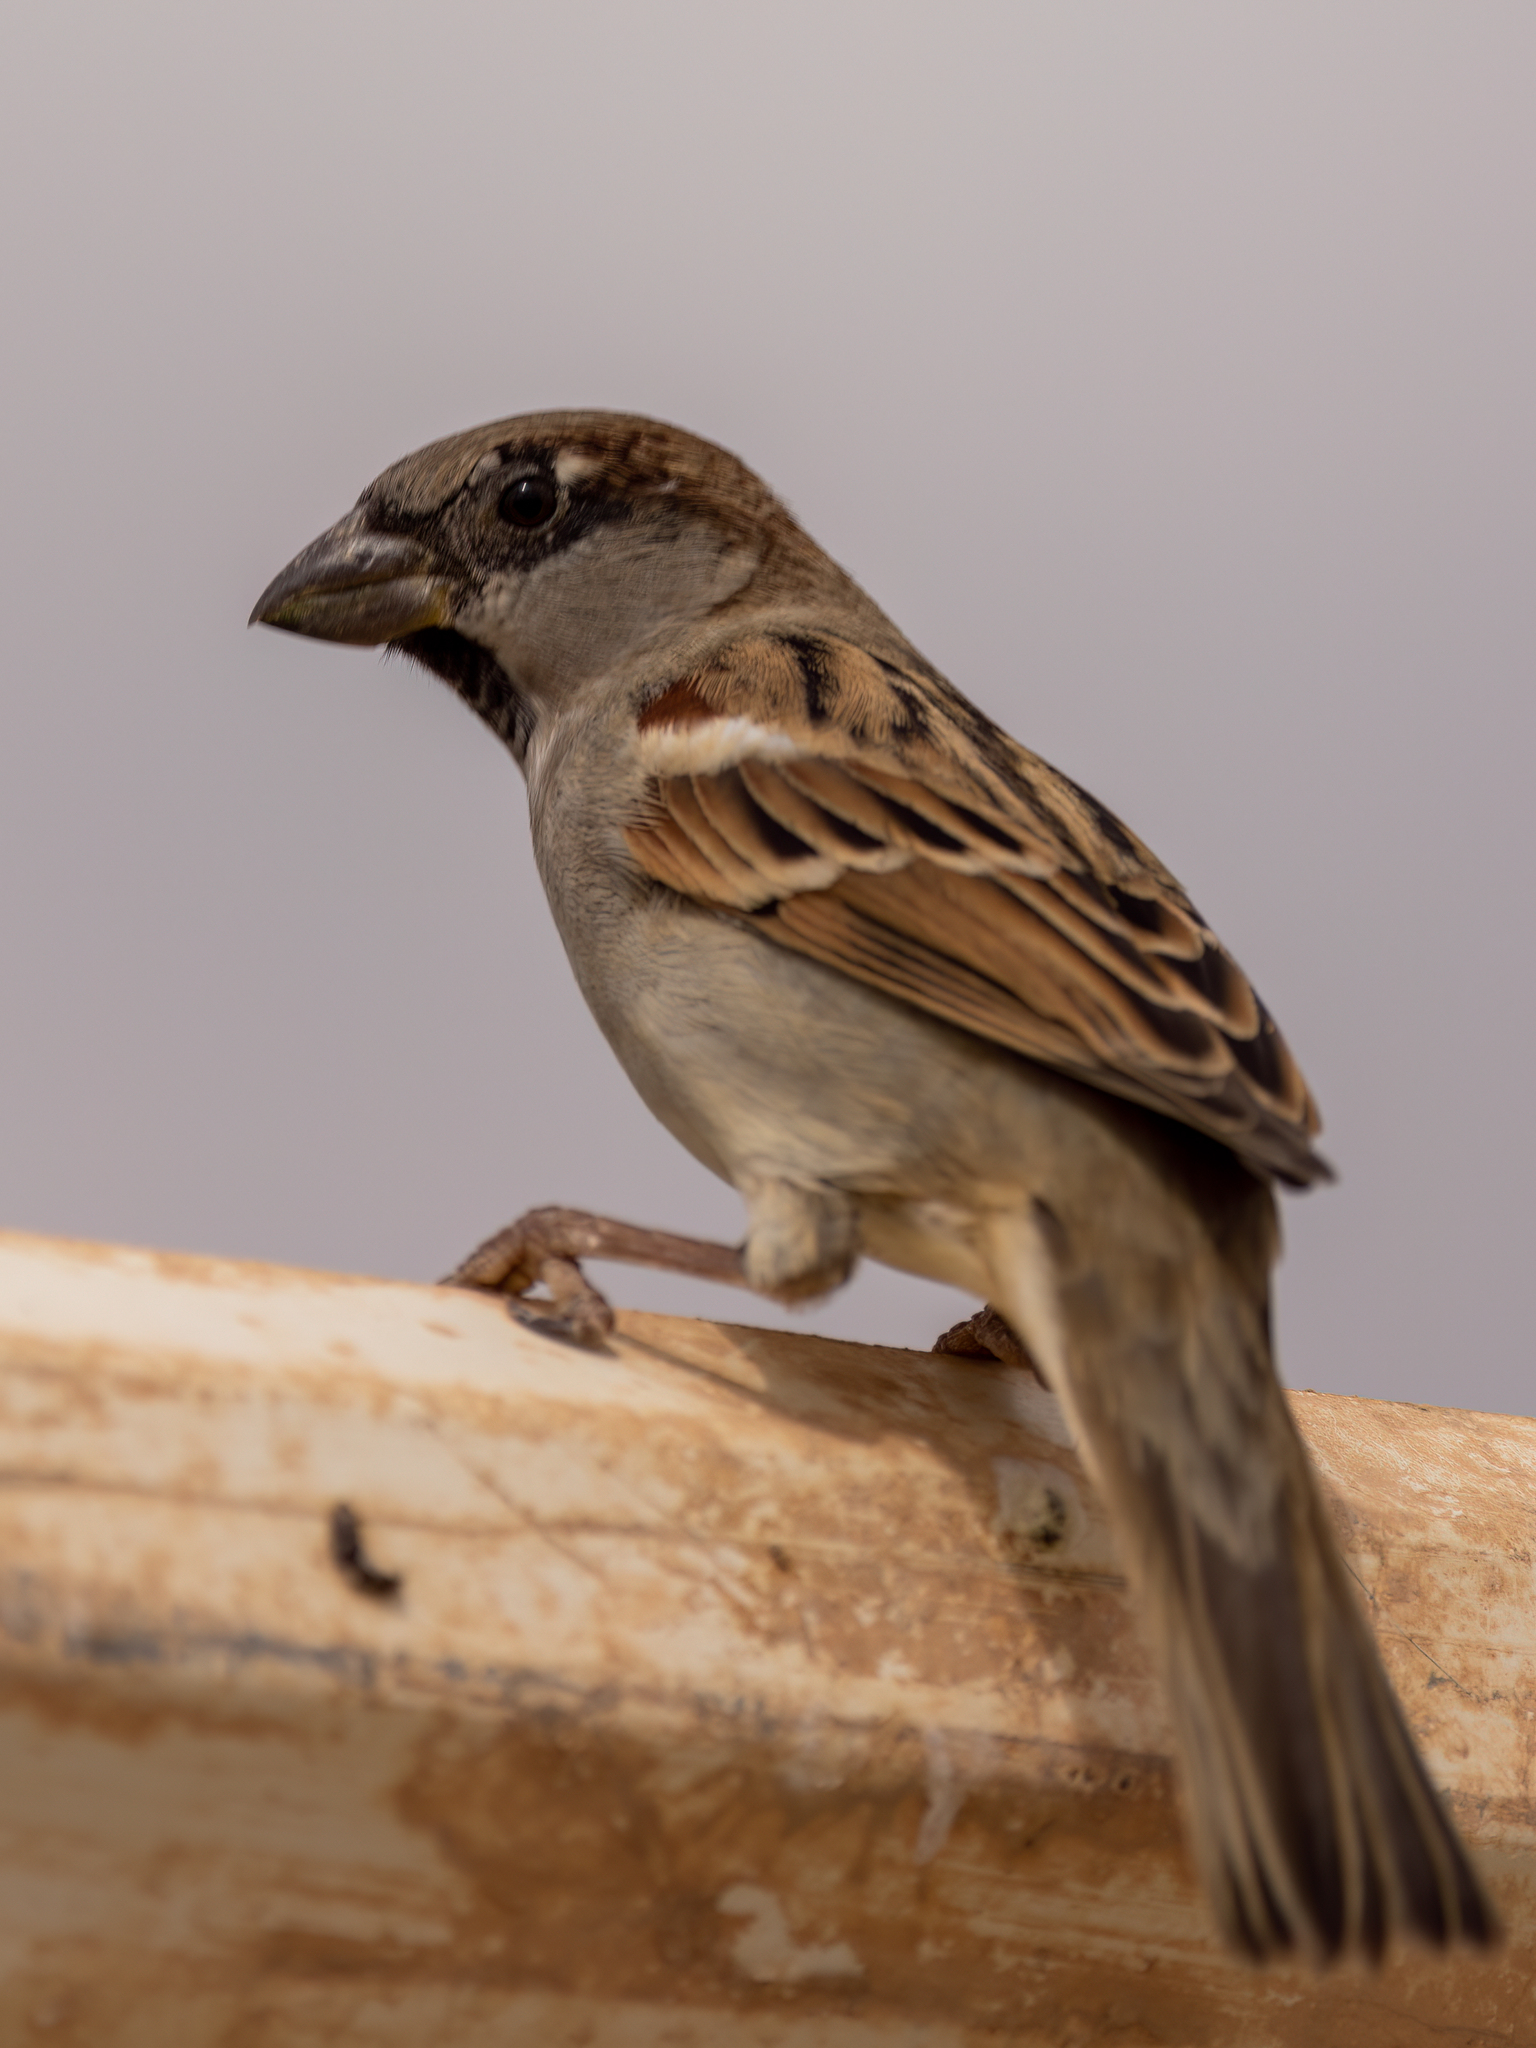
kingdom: Animalia
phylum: Chordata
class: Aves
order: Passeriformes
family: Passeridae
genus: Passer
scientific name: Passer domesticus
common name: House sparrow
